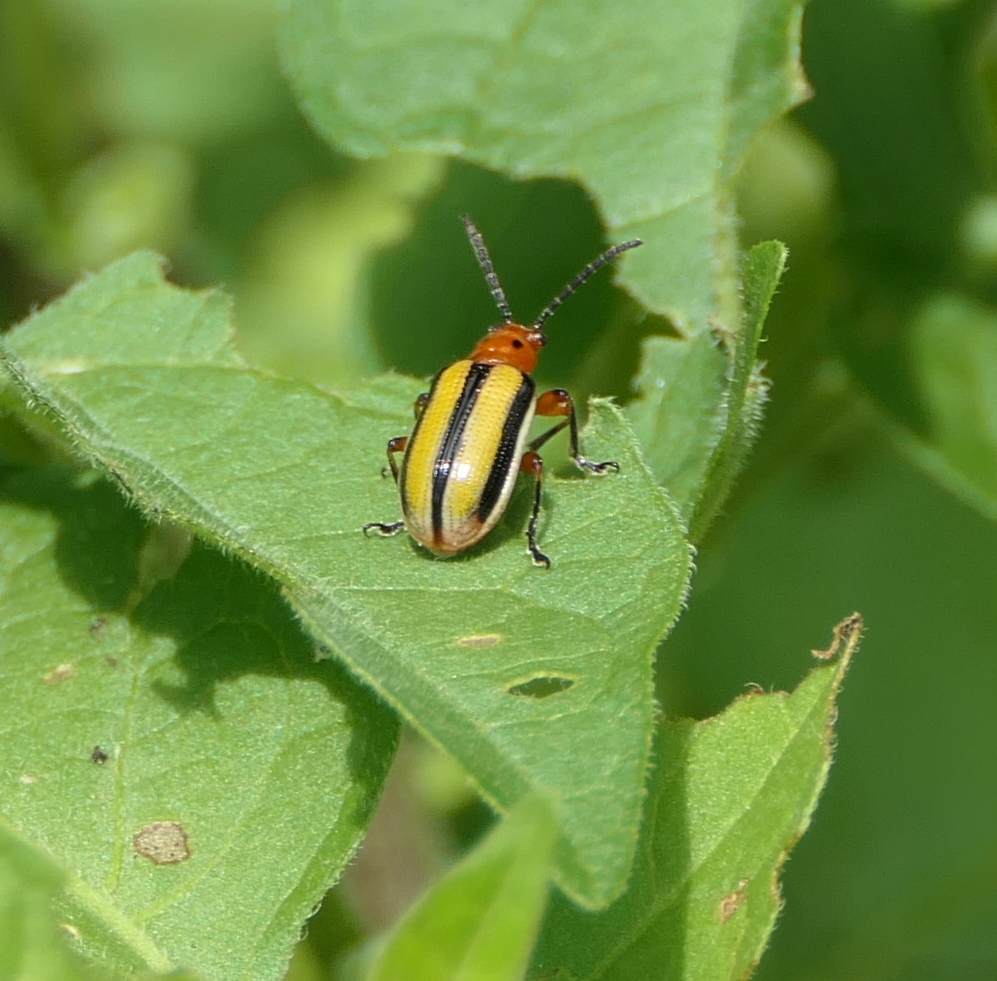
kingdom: Animalia
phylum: Arthropoda
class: Insecta
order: Coleoptera
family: Chrysomelidae
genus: Lema
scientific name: Lema daturaphila
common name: Leaf beetle
